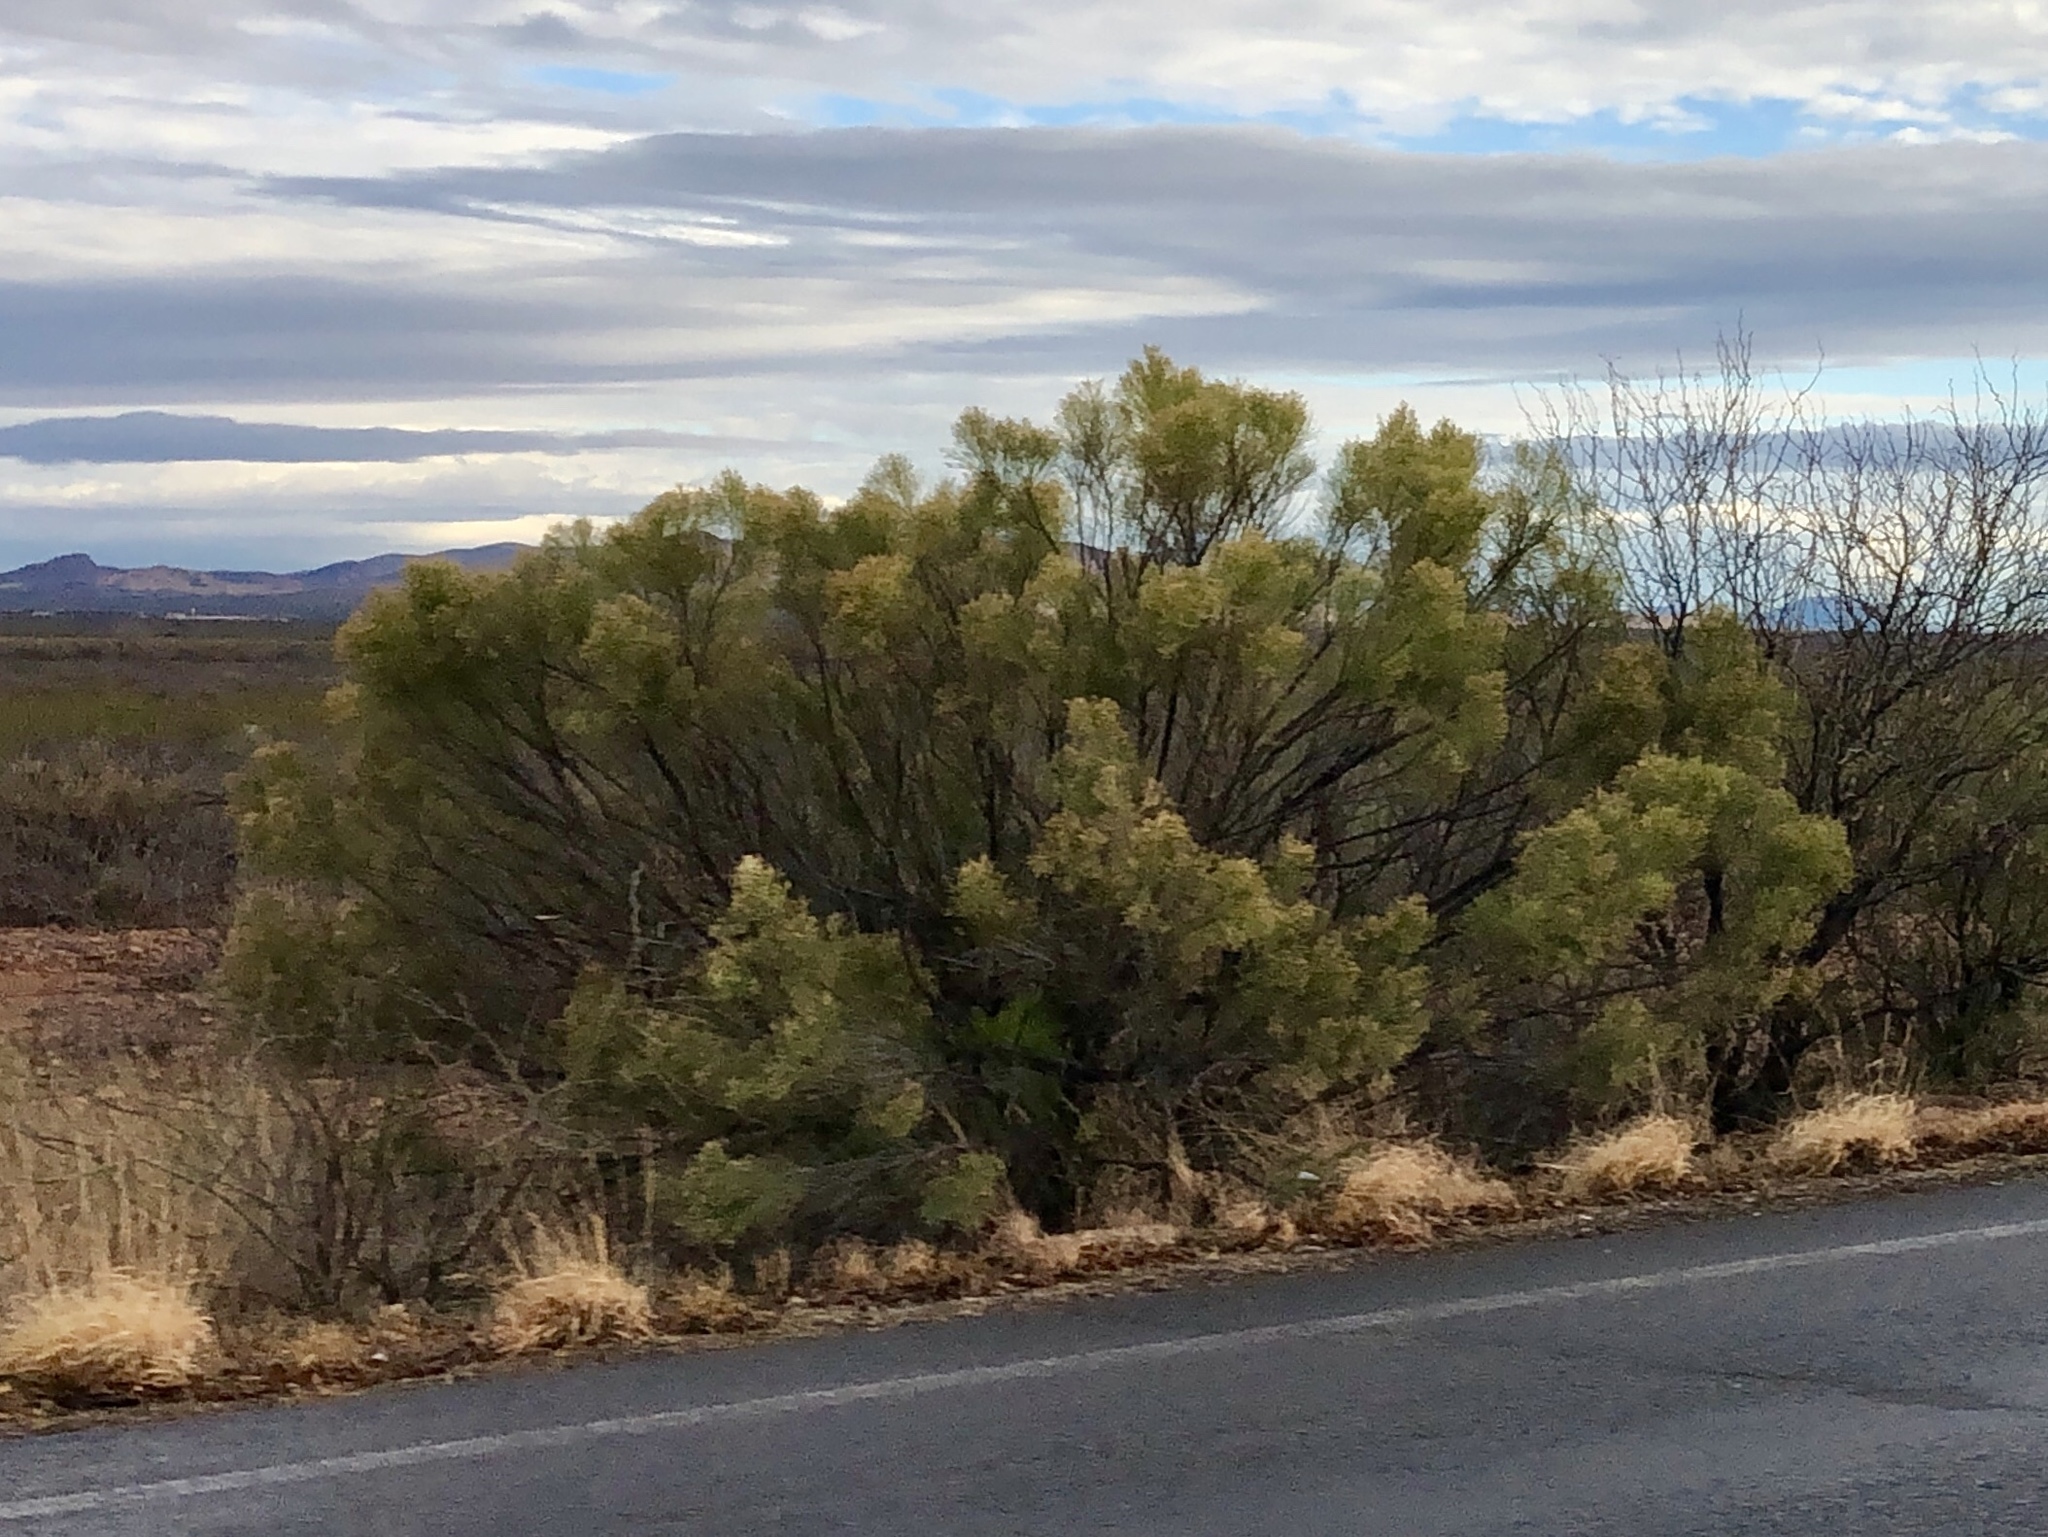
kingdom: Plantae
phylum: Tracheophyta
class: Magnoliopsida
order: Asterales
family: Asteraceae
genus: Baccharis
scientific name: Baccharis sarothroides
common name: Desert-broom
